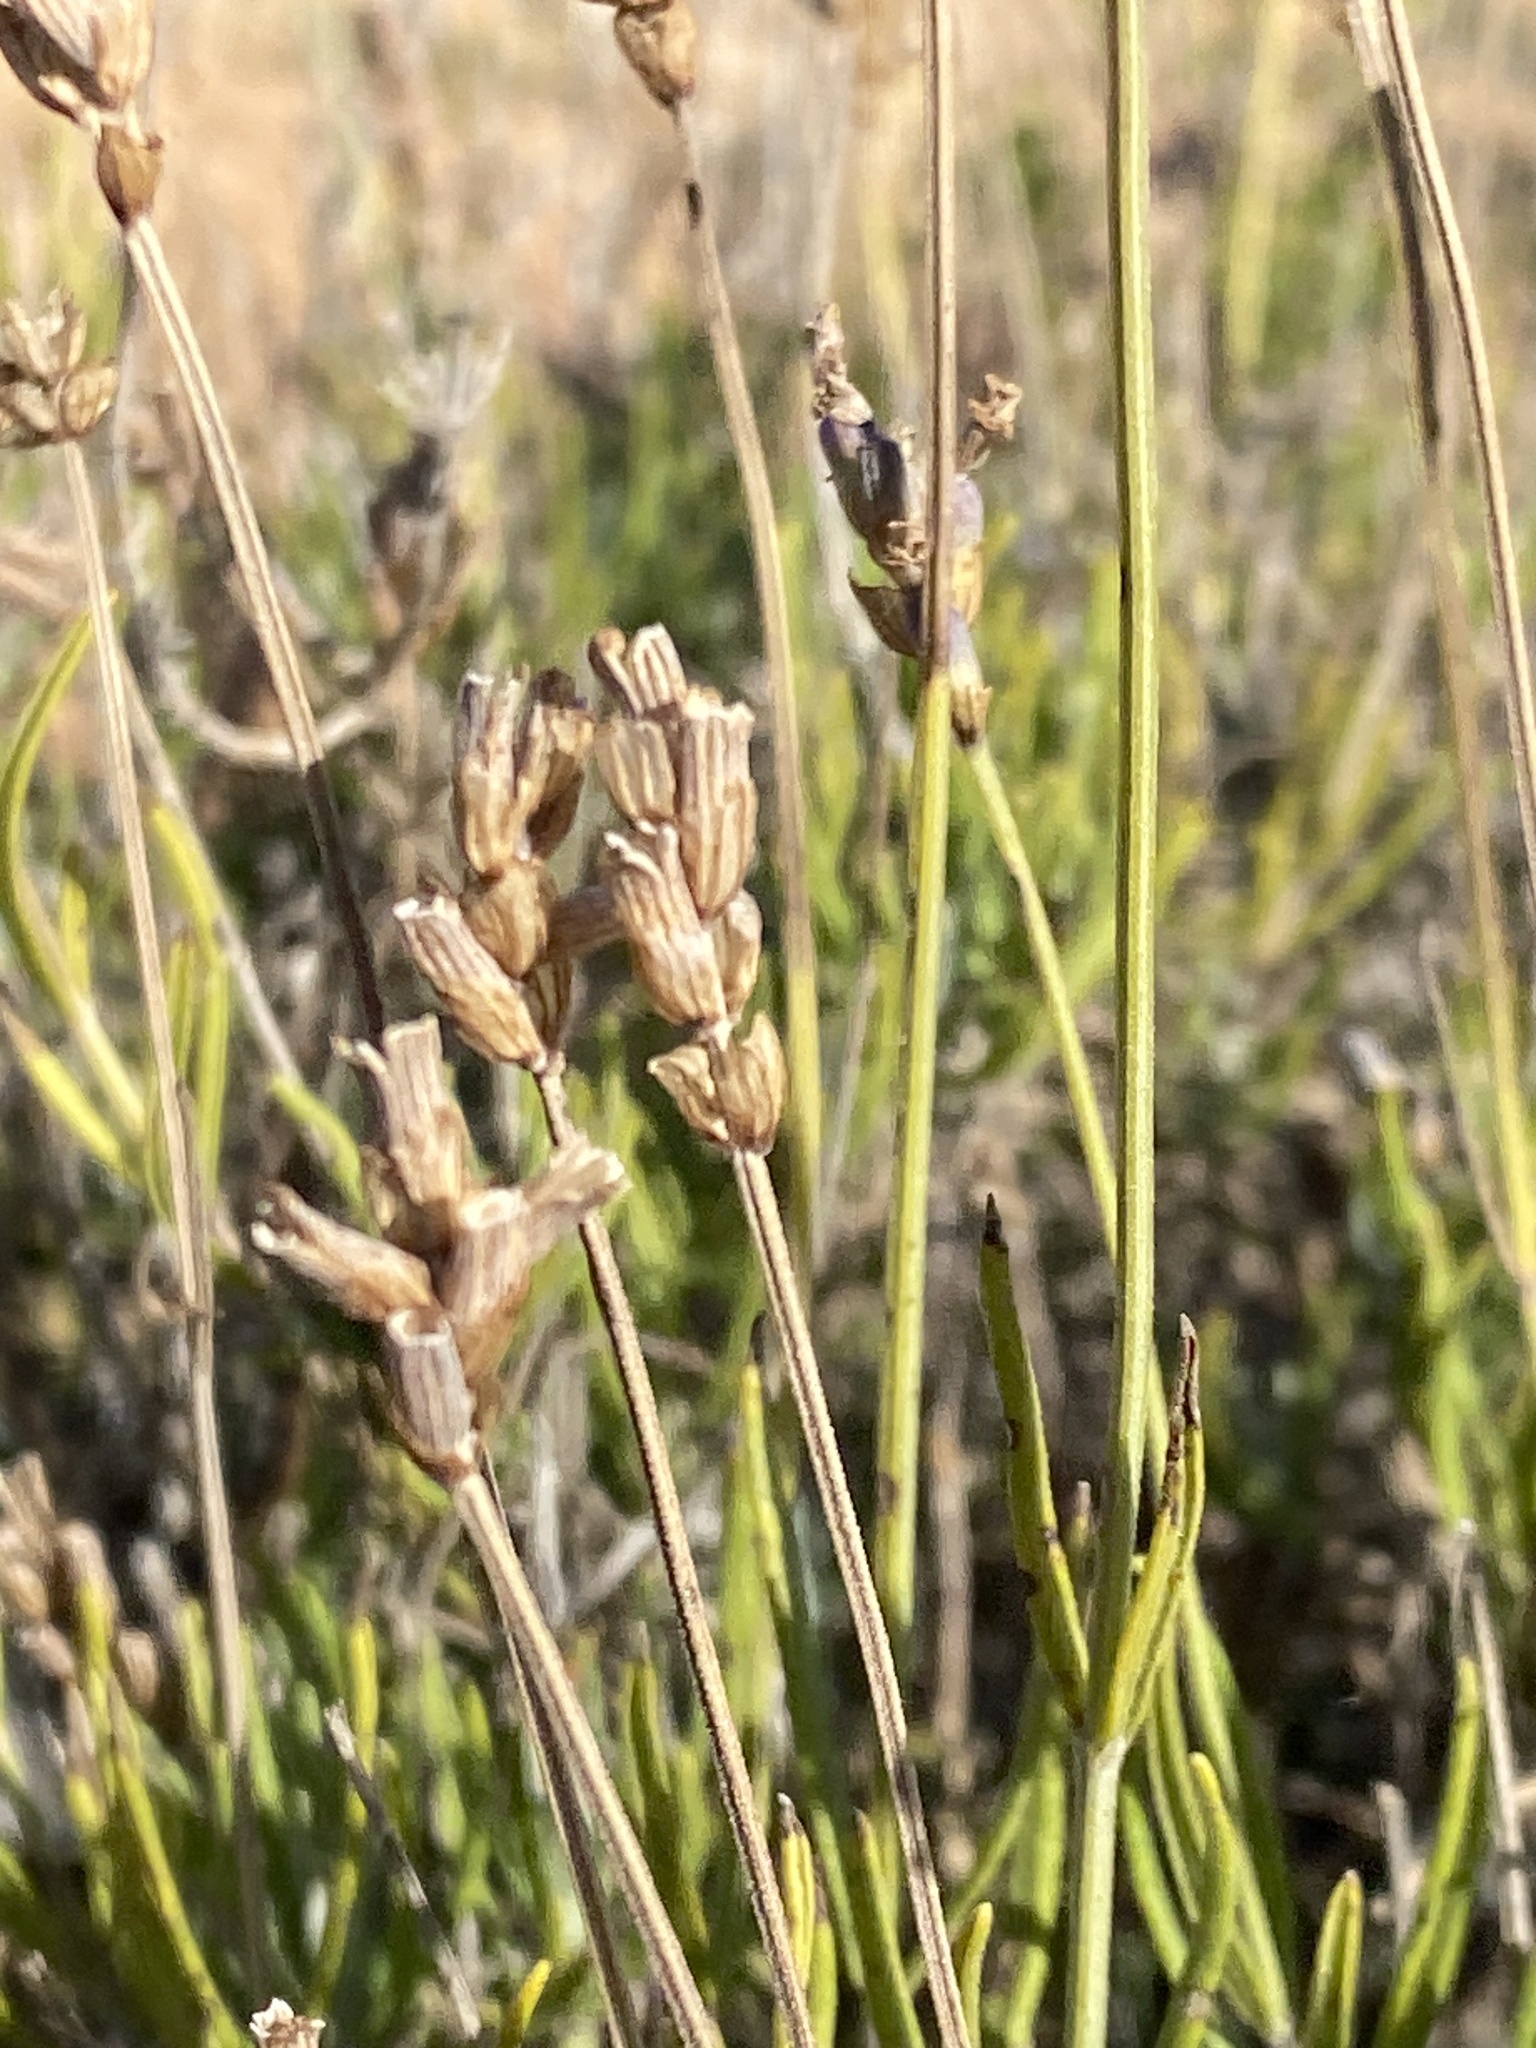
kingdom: Plantae
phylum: Tracheophyta
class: Magnoliopsida
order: Lamiales
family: Lamiaceae
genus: Lavandula
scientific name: Lavandula angustifolia
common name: Garden lavender
